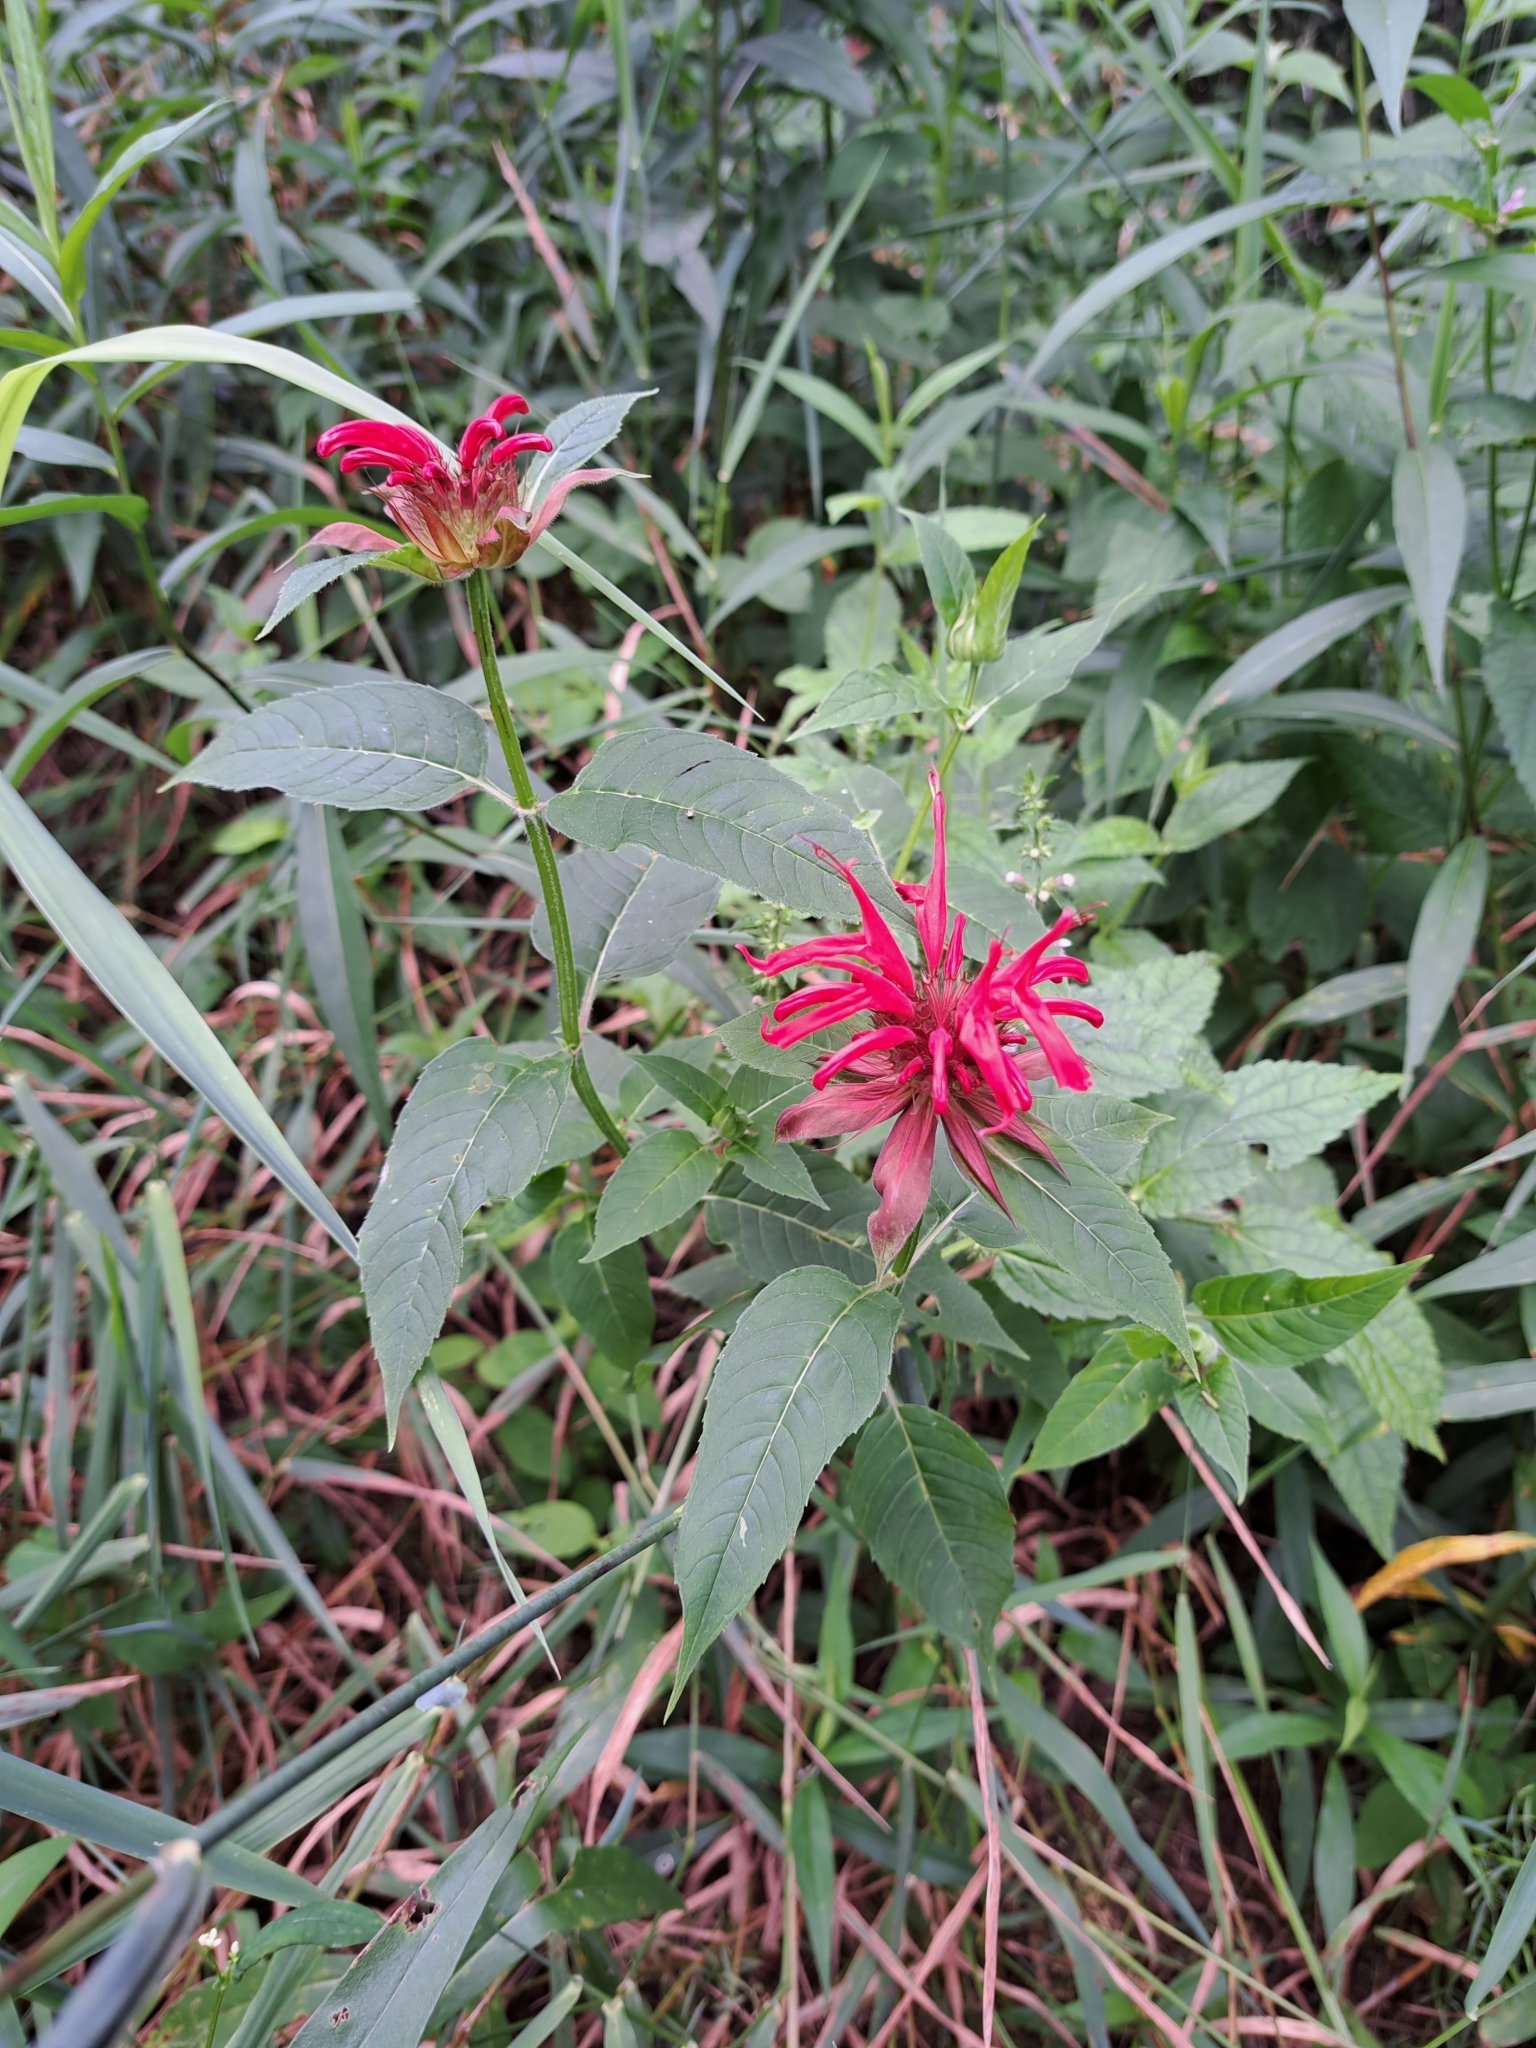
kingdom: Plantae
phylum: Tracheophyta
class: Magnoliopsida
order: Lamiales
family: Lamiaceae
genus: Monarda
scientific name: Monarda didyma
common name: Beebalm
